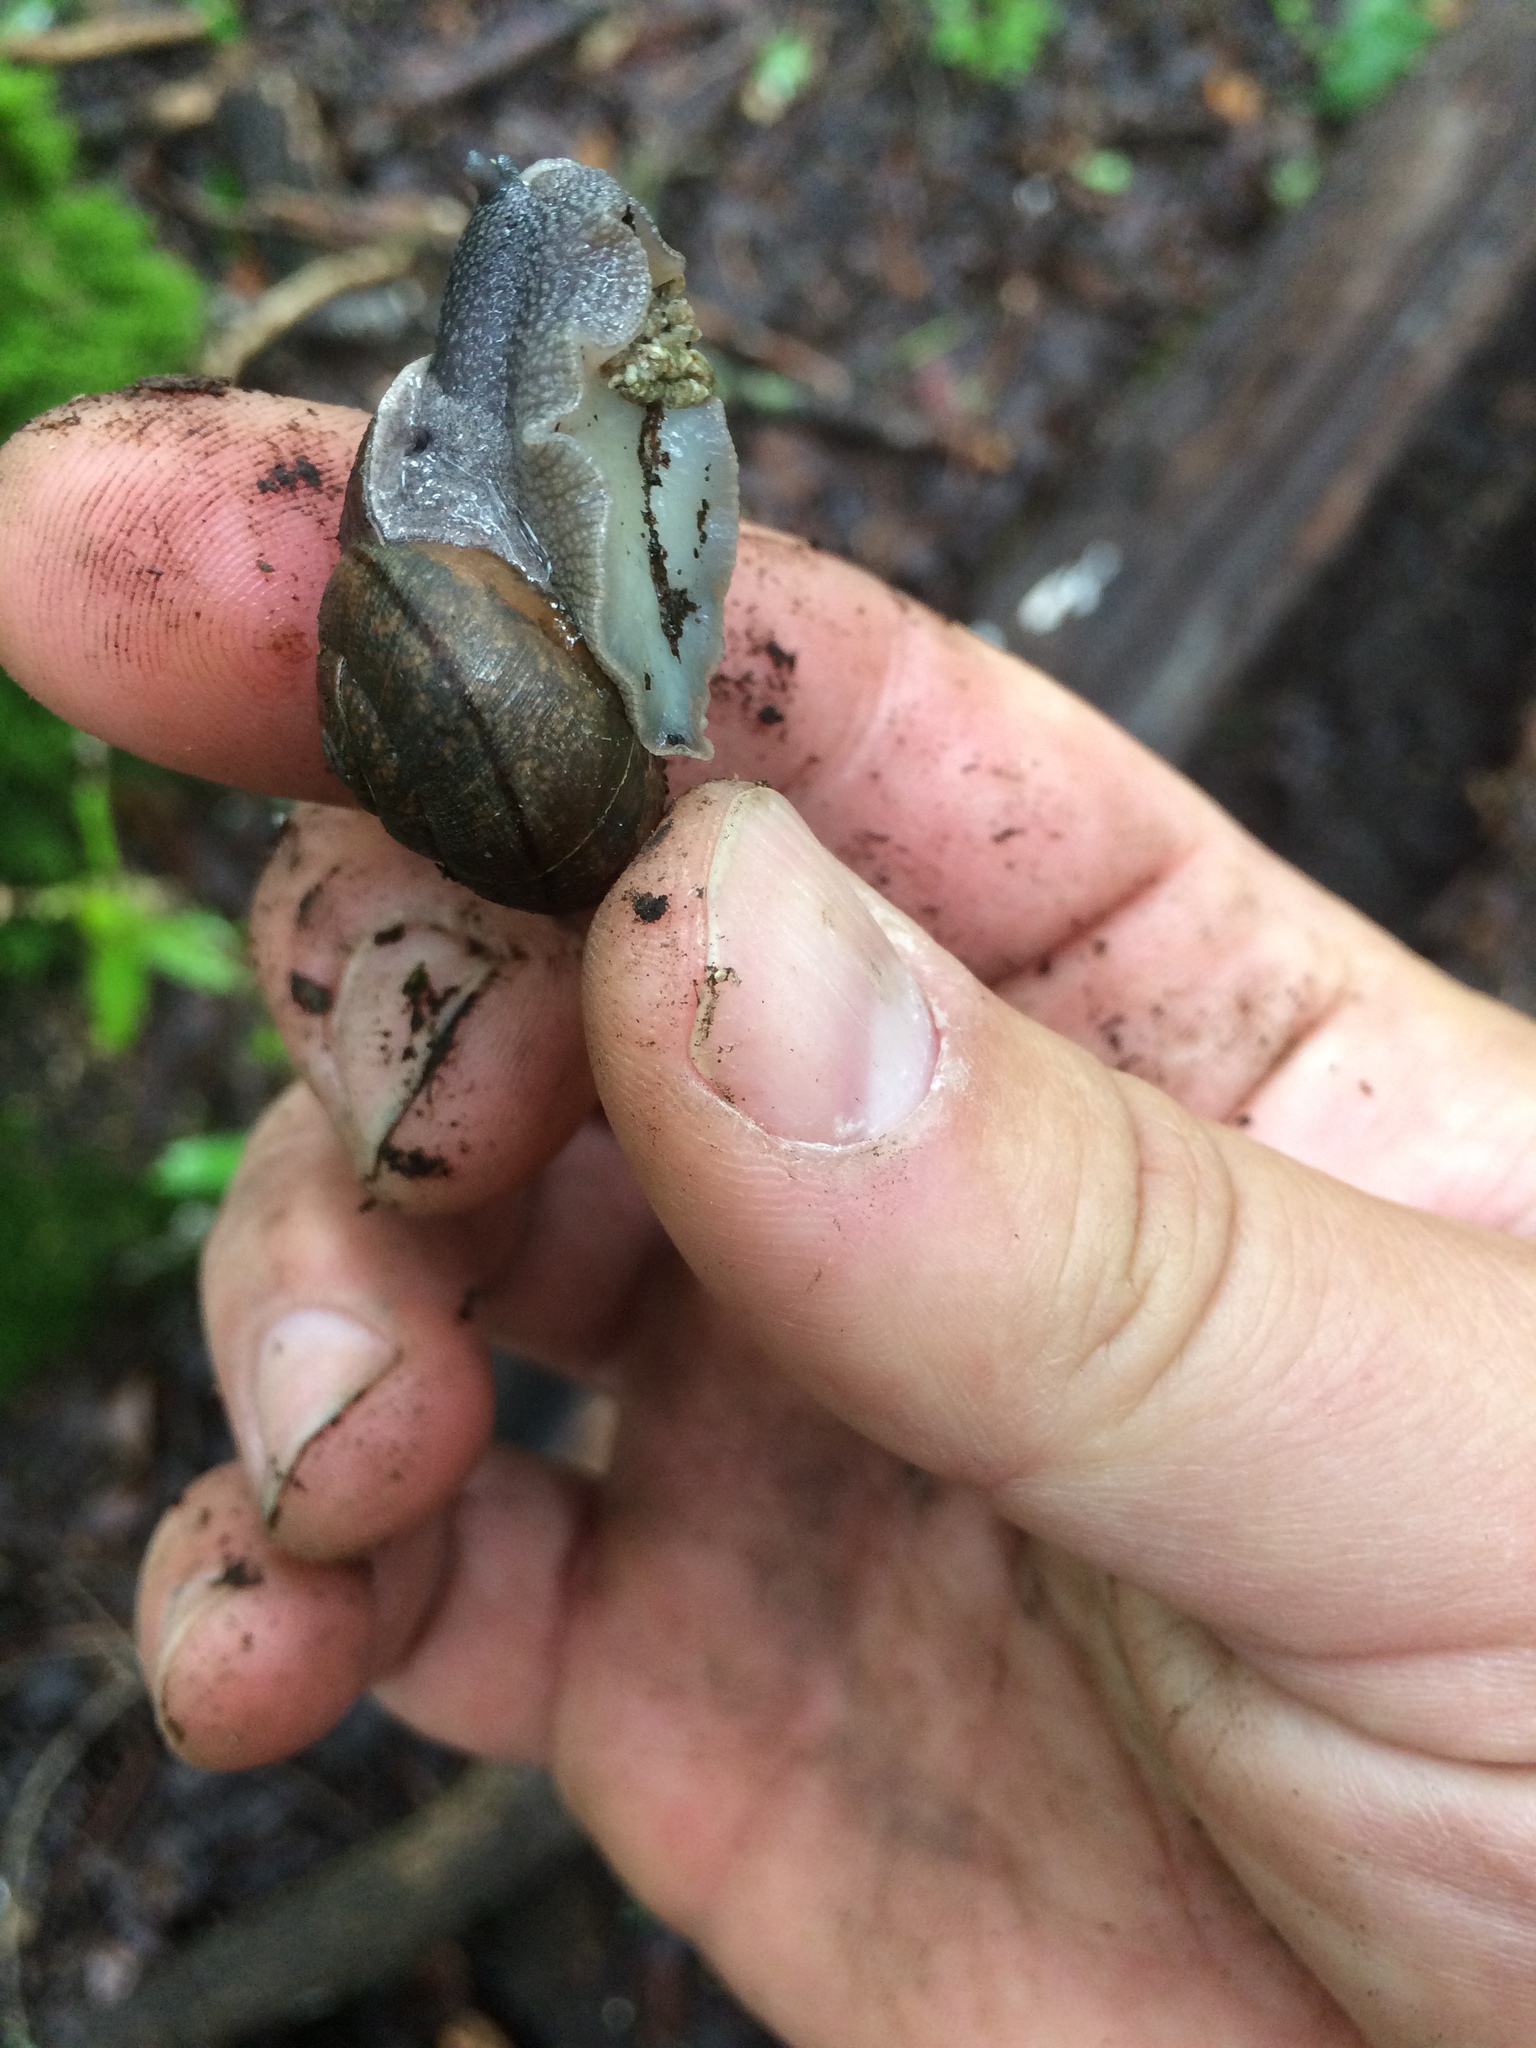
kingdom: Animalia
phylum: Mollusca
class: Gastropoda
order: Stylommatophora
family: Xanthonychidae
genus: Helminthoglypta
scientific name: Helminthoglypta nickliniana
